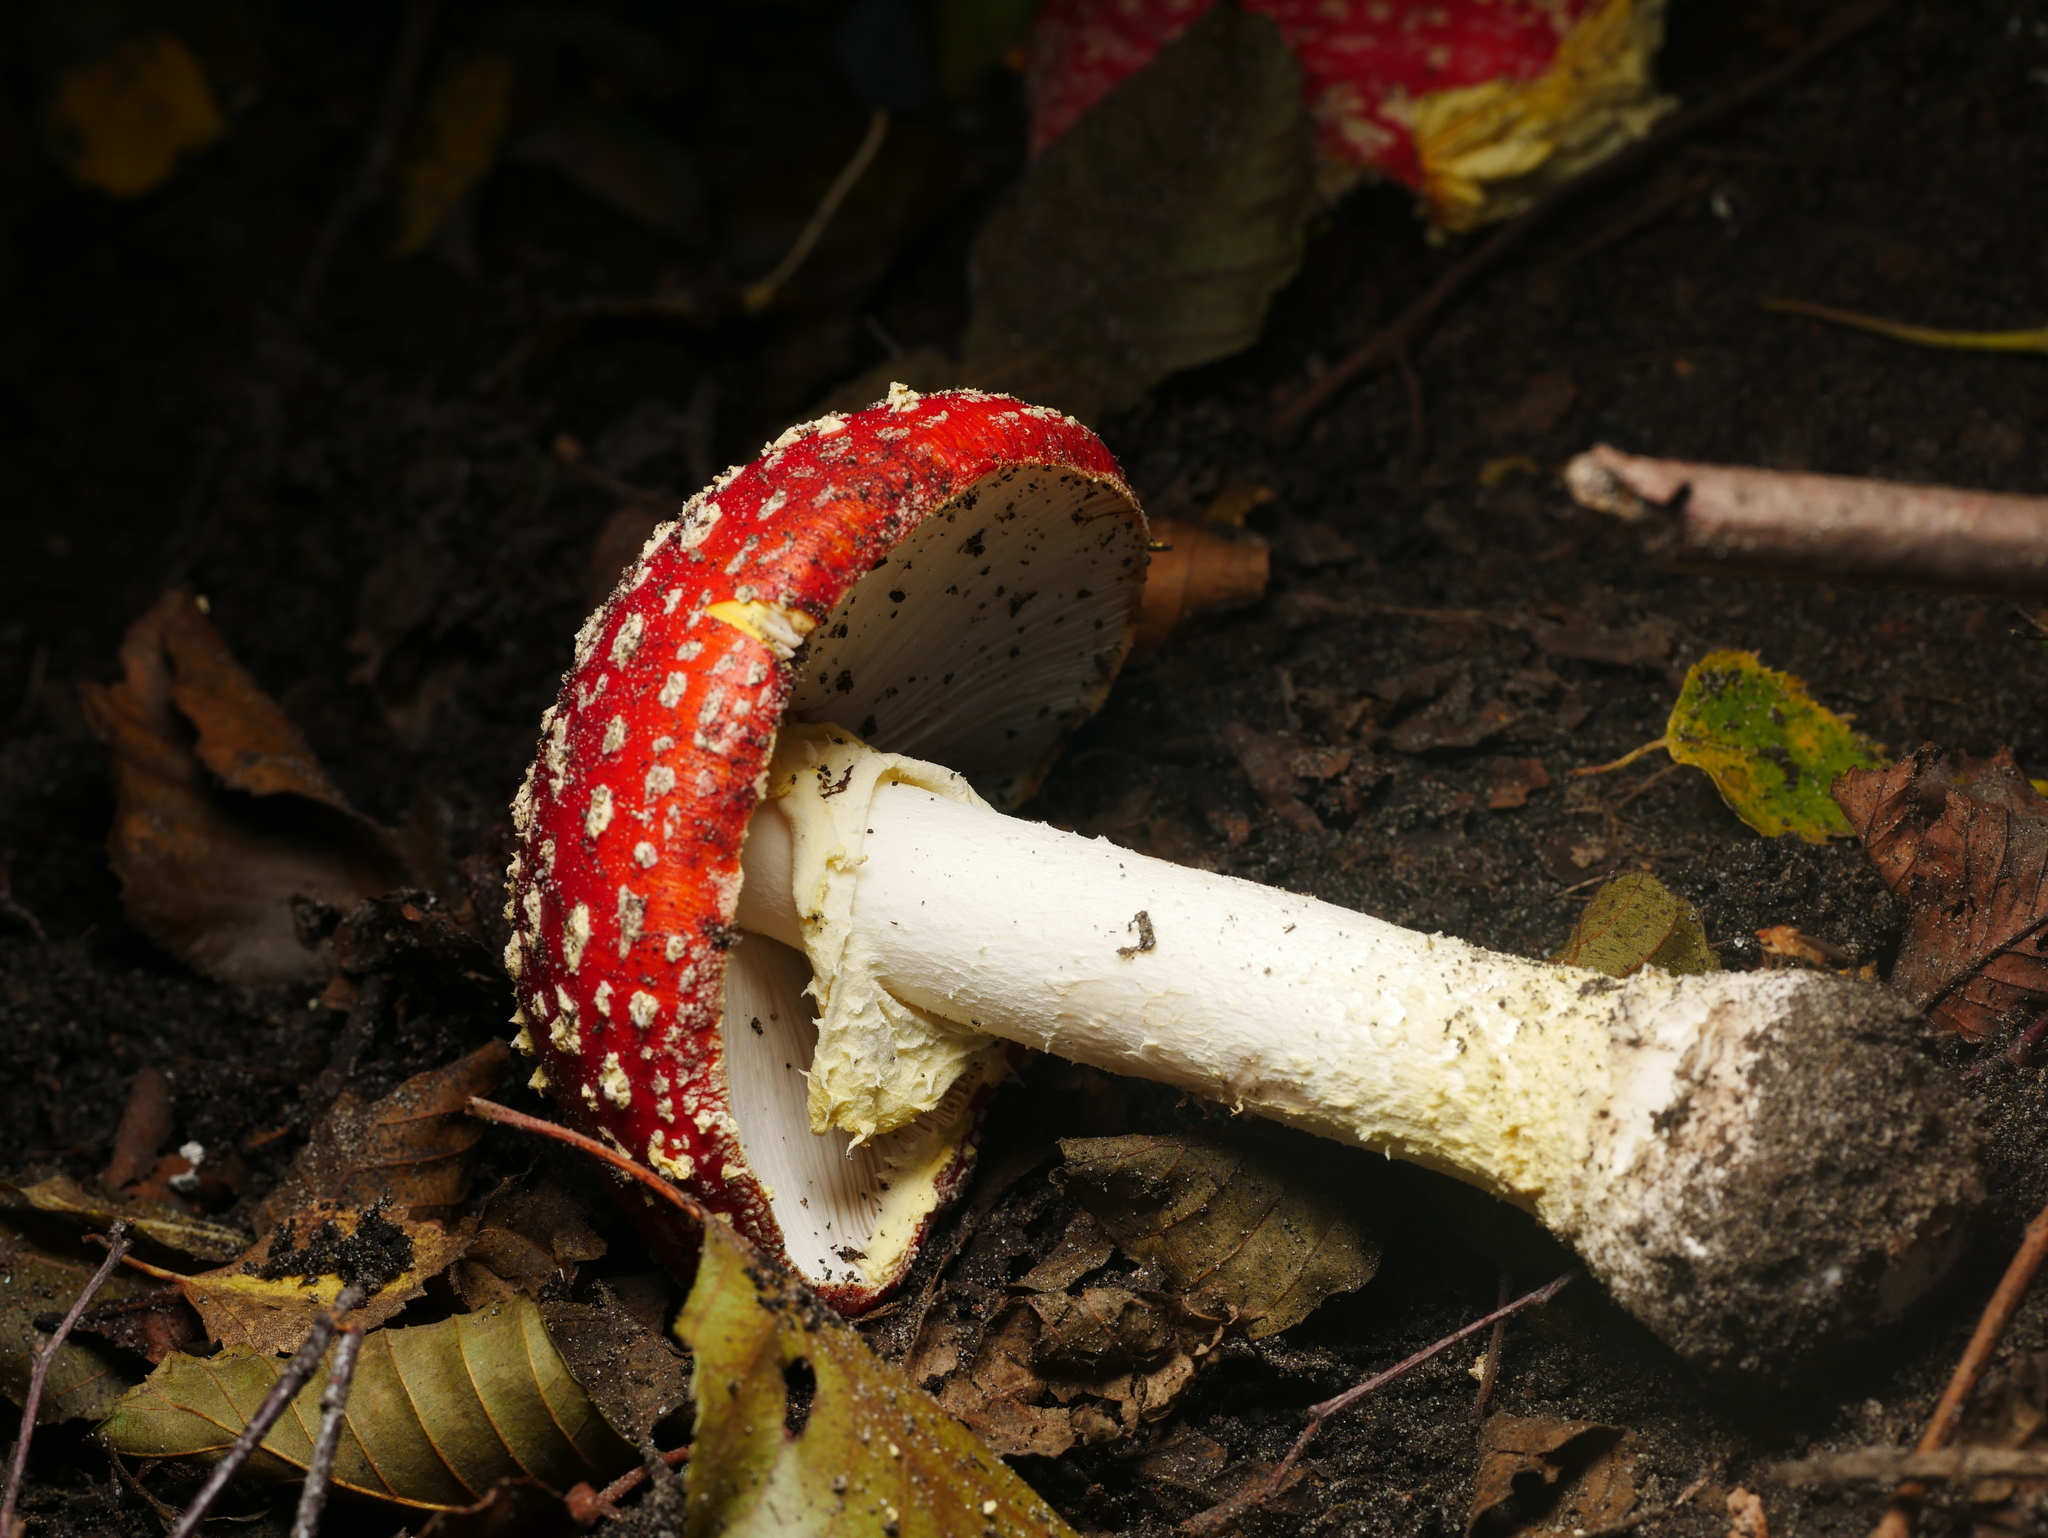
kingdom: Fungi
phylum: Basidiomycota
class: Agaricomycetes
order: Agaricales
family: Amanitaceae
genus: Amanita
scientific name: Amanita muscaria
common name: Fly agaric
